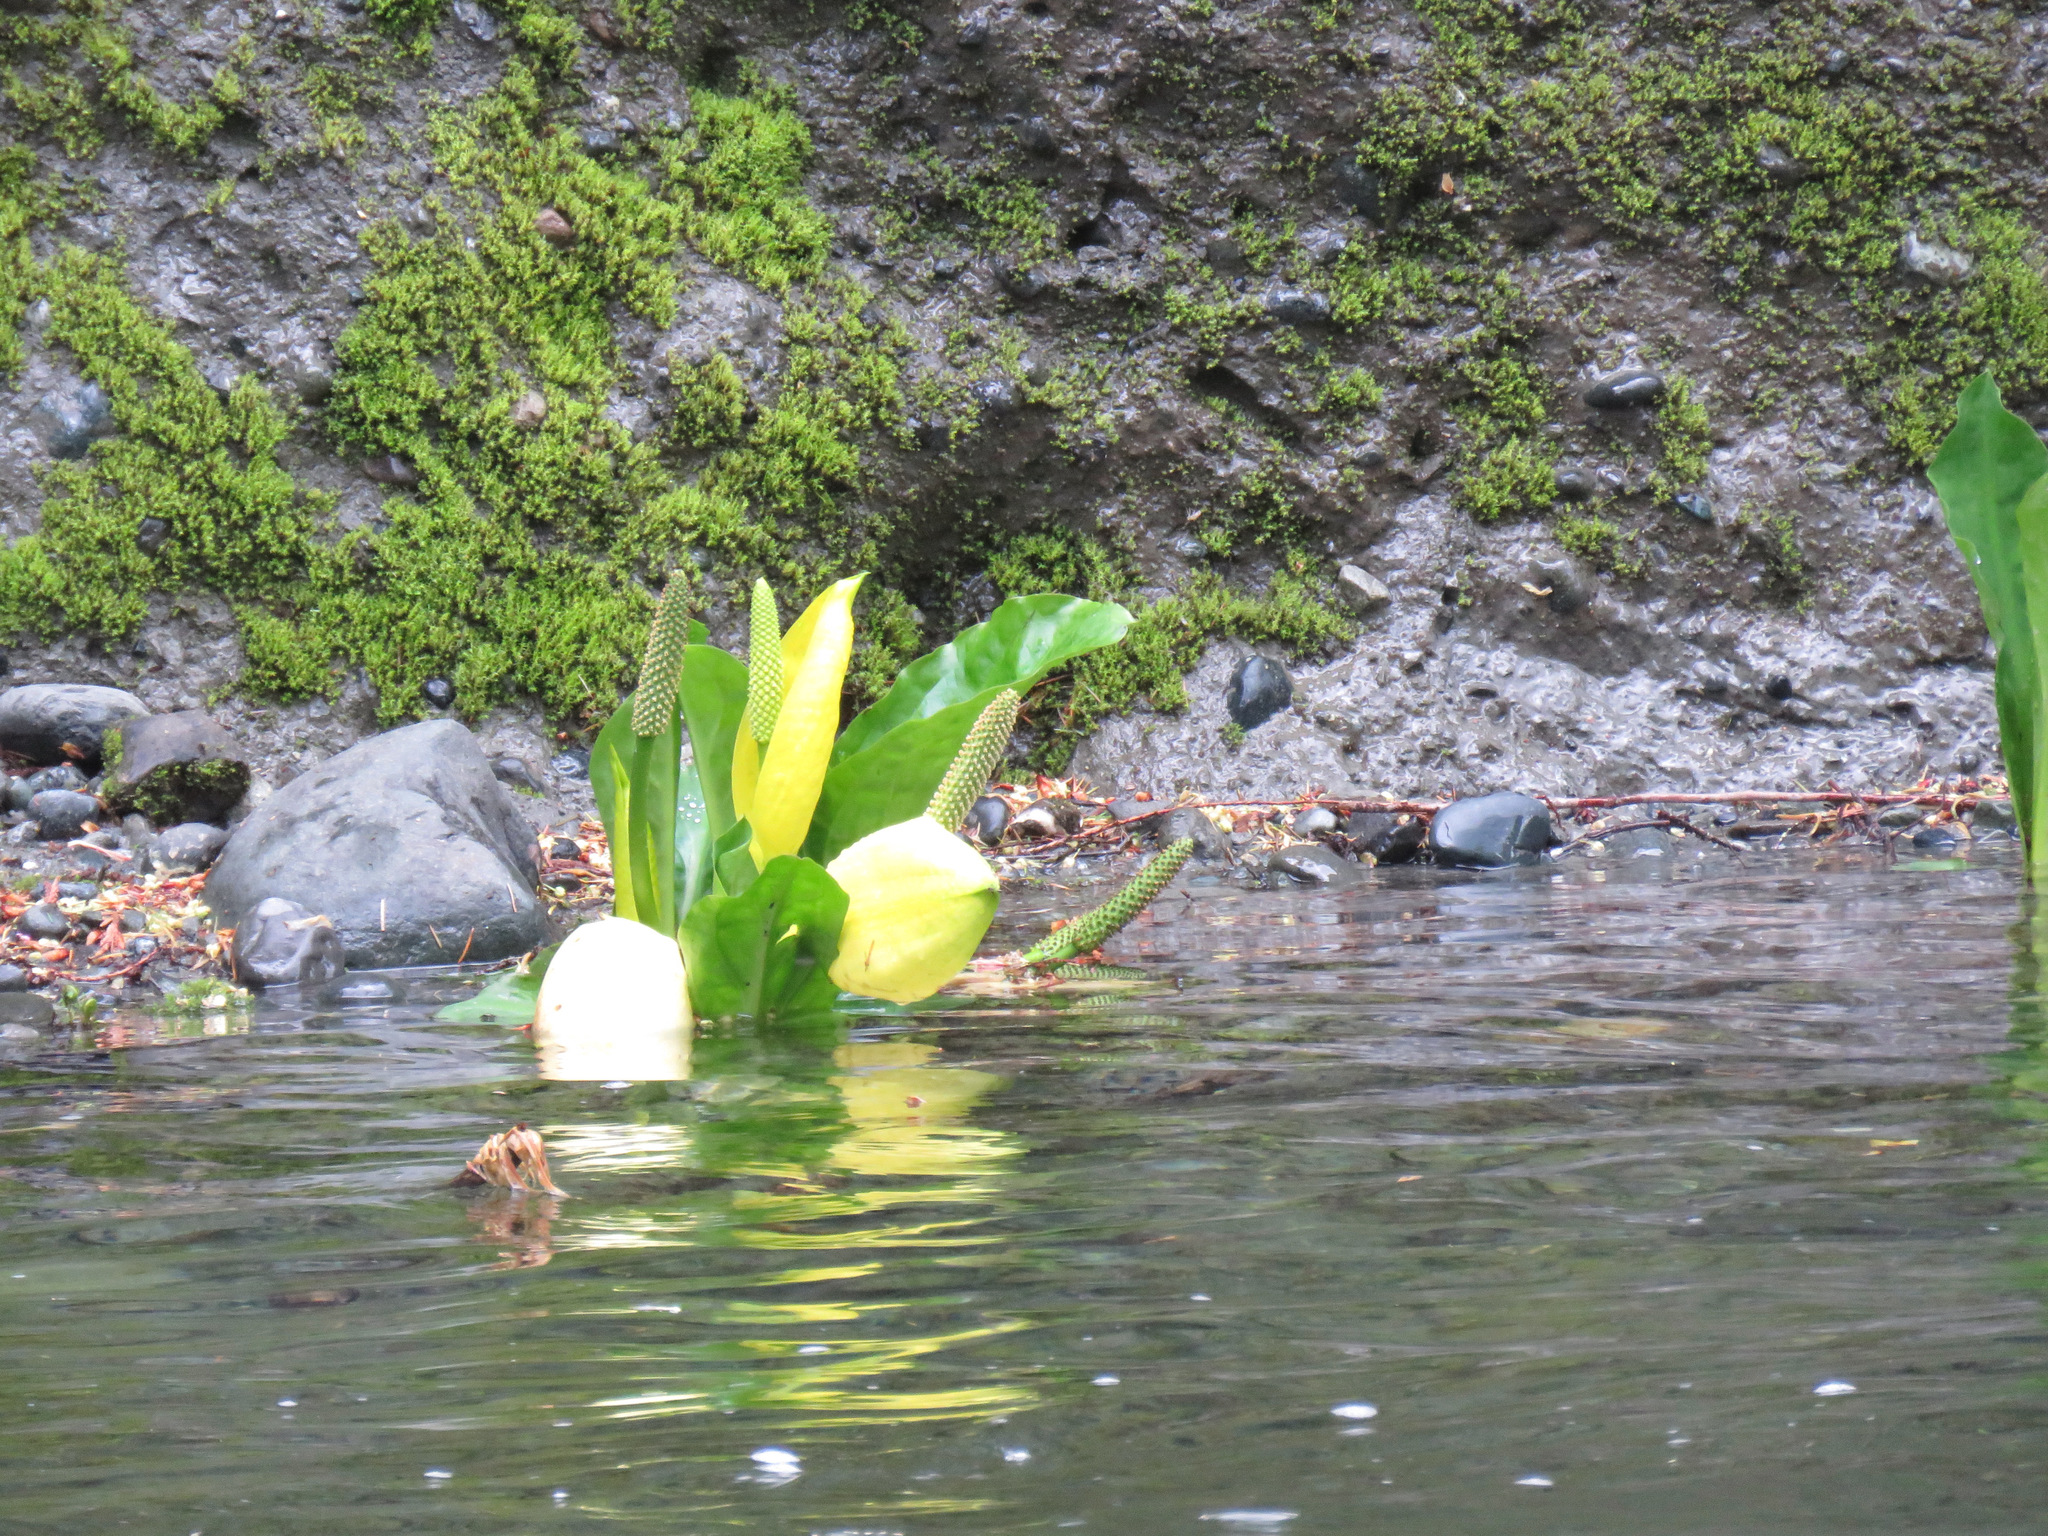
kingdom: Plantae
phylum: Tracheophyta
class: Liliopsida
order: Alismatales
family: Araceae
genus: Lysichiton
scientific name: Lysichiton americanus
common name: American skunk cabbage
